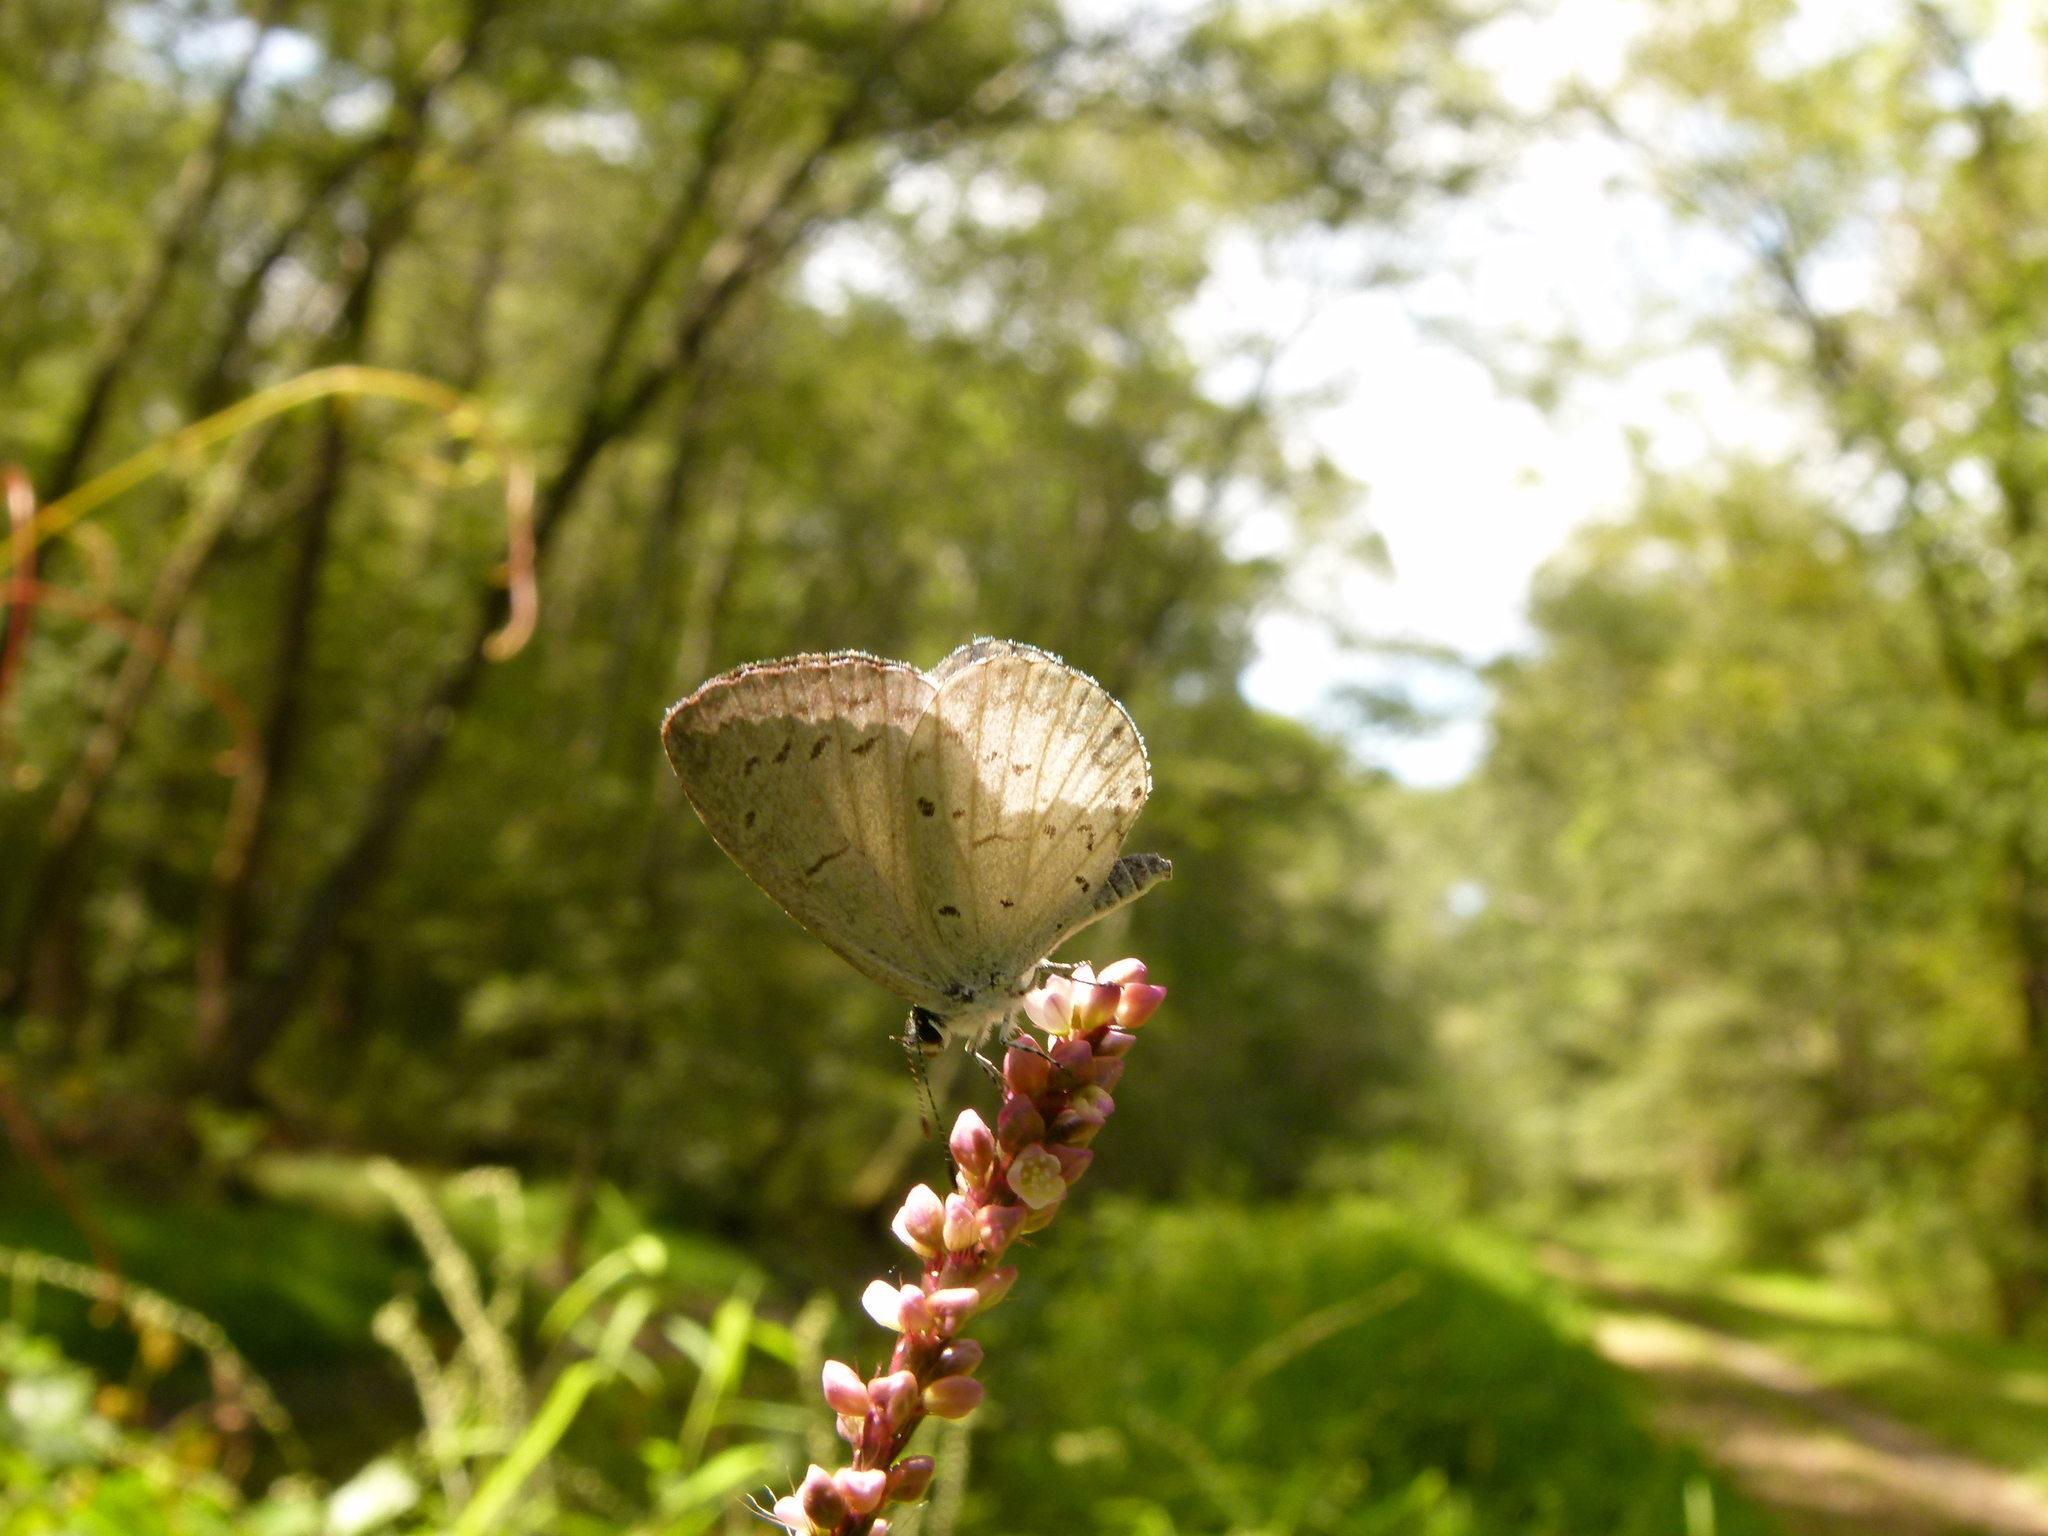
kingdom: Animalia
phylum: Arthropoda
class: Insecta
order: Lepidoptera
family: Lycaenidae
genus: Cyaniris
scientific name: Cyaniris neglecta
